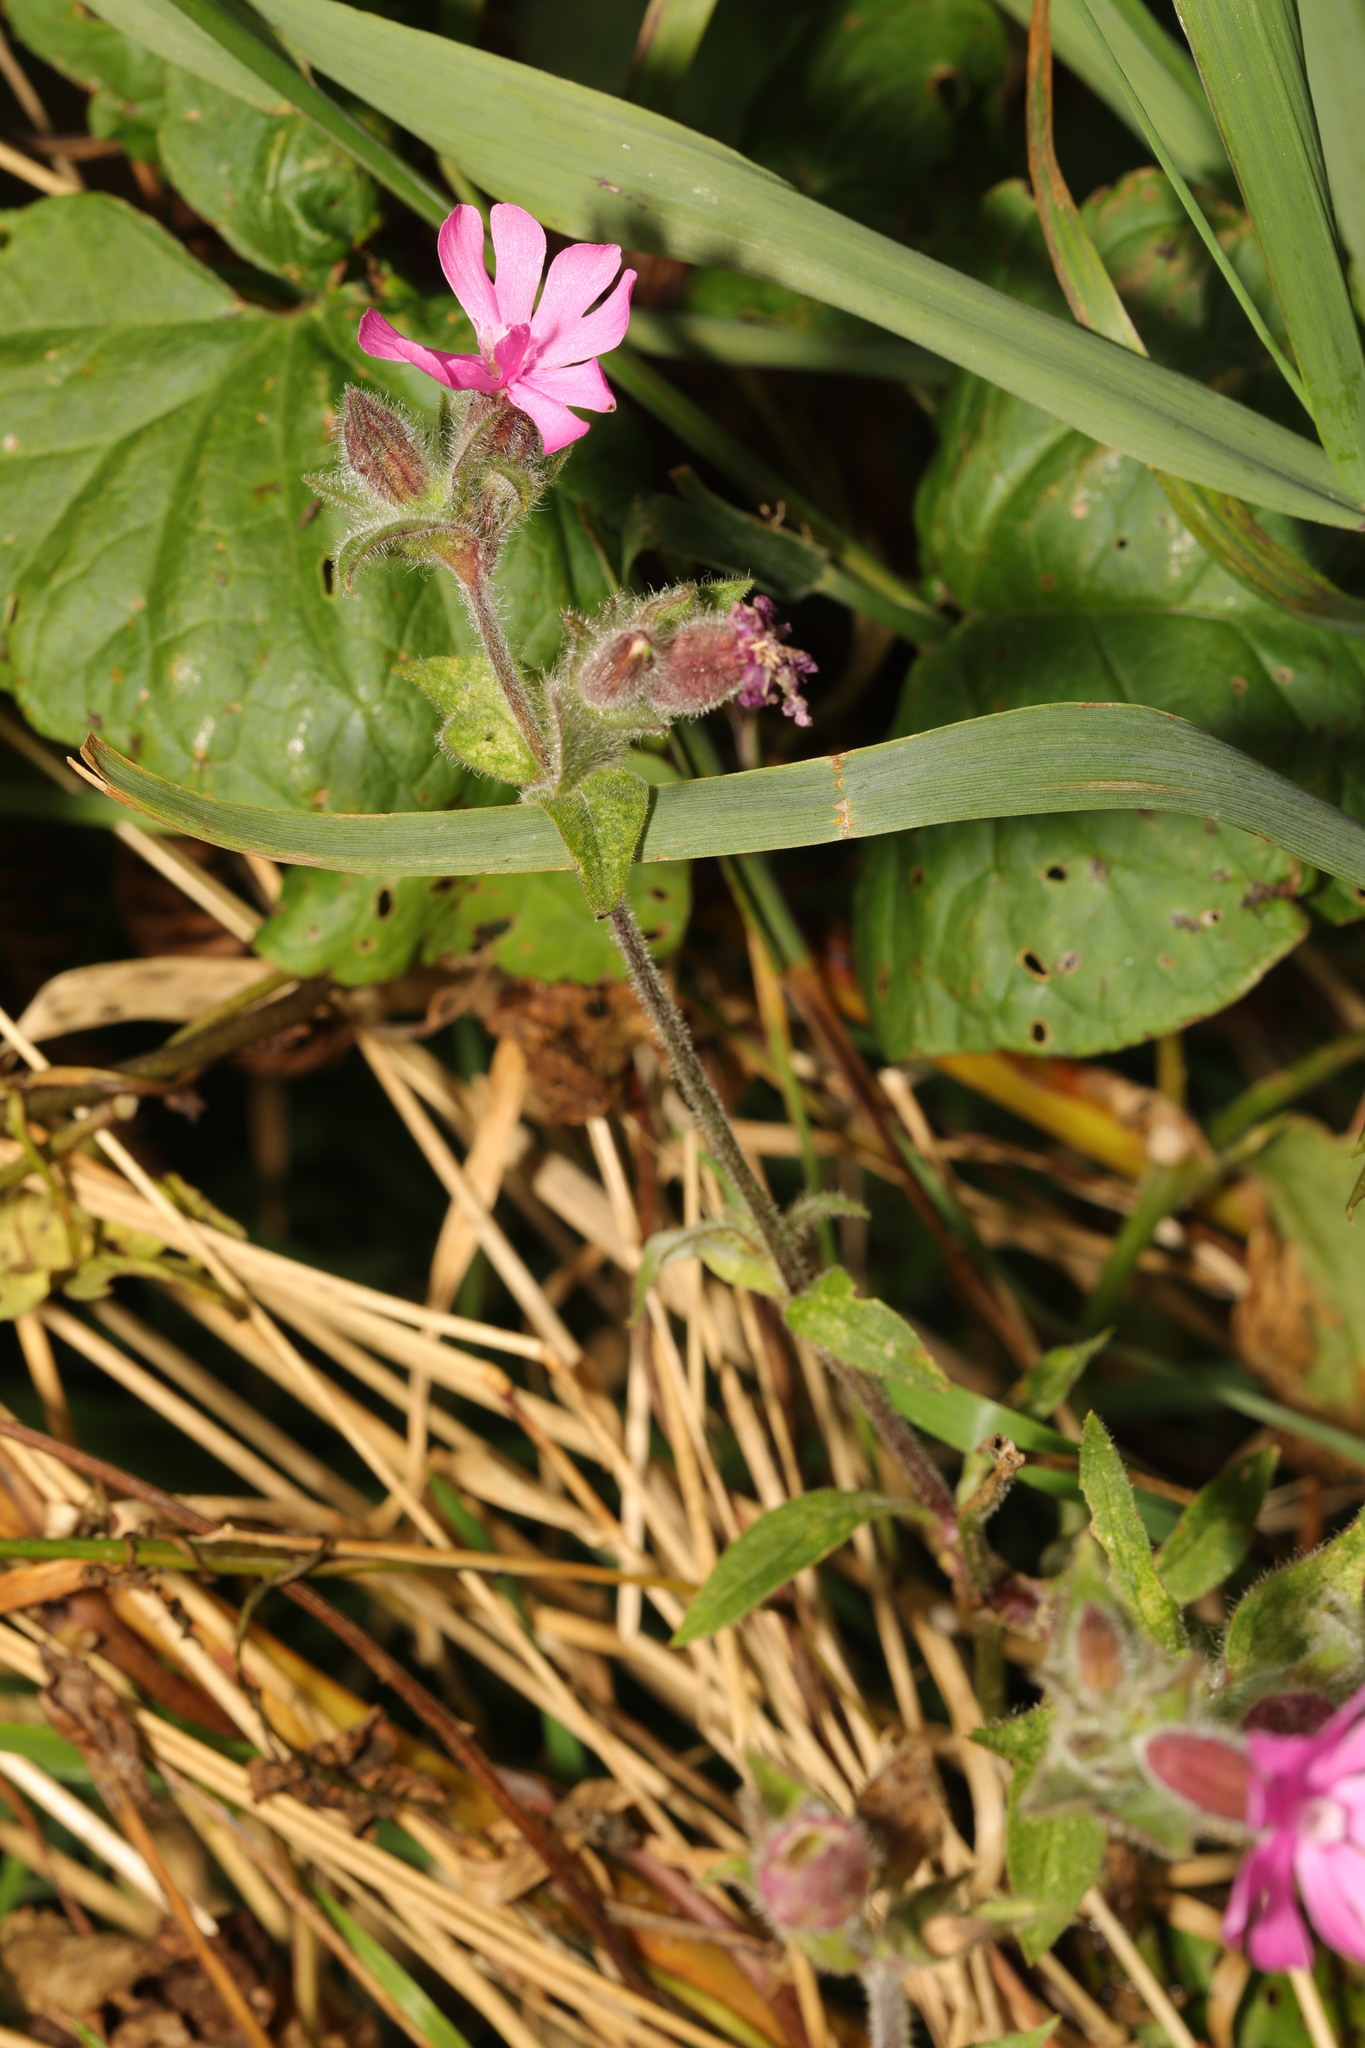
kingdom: Plantae
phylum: Tracheophyta
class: Magnoliopsida
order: Caryophyllales
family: Caryophyllaceae
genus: Silene
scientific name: Silene dioica
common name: Red campion
